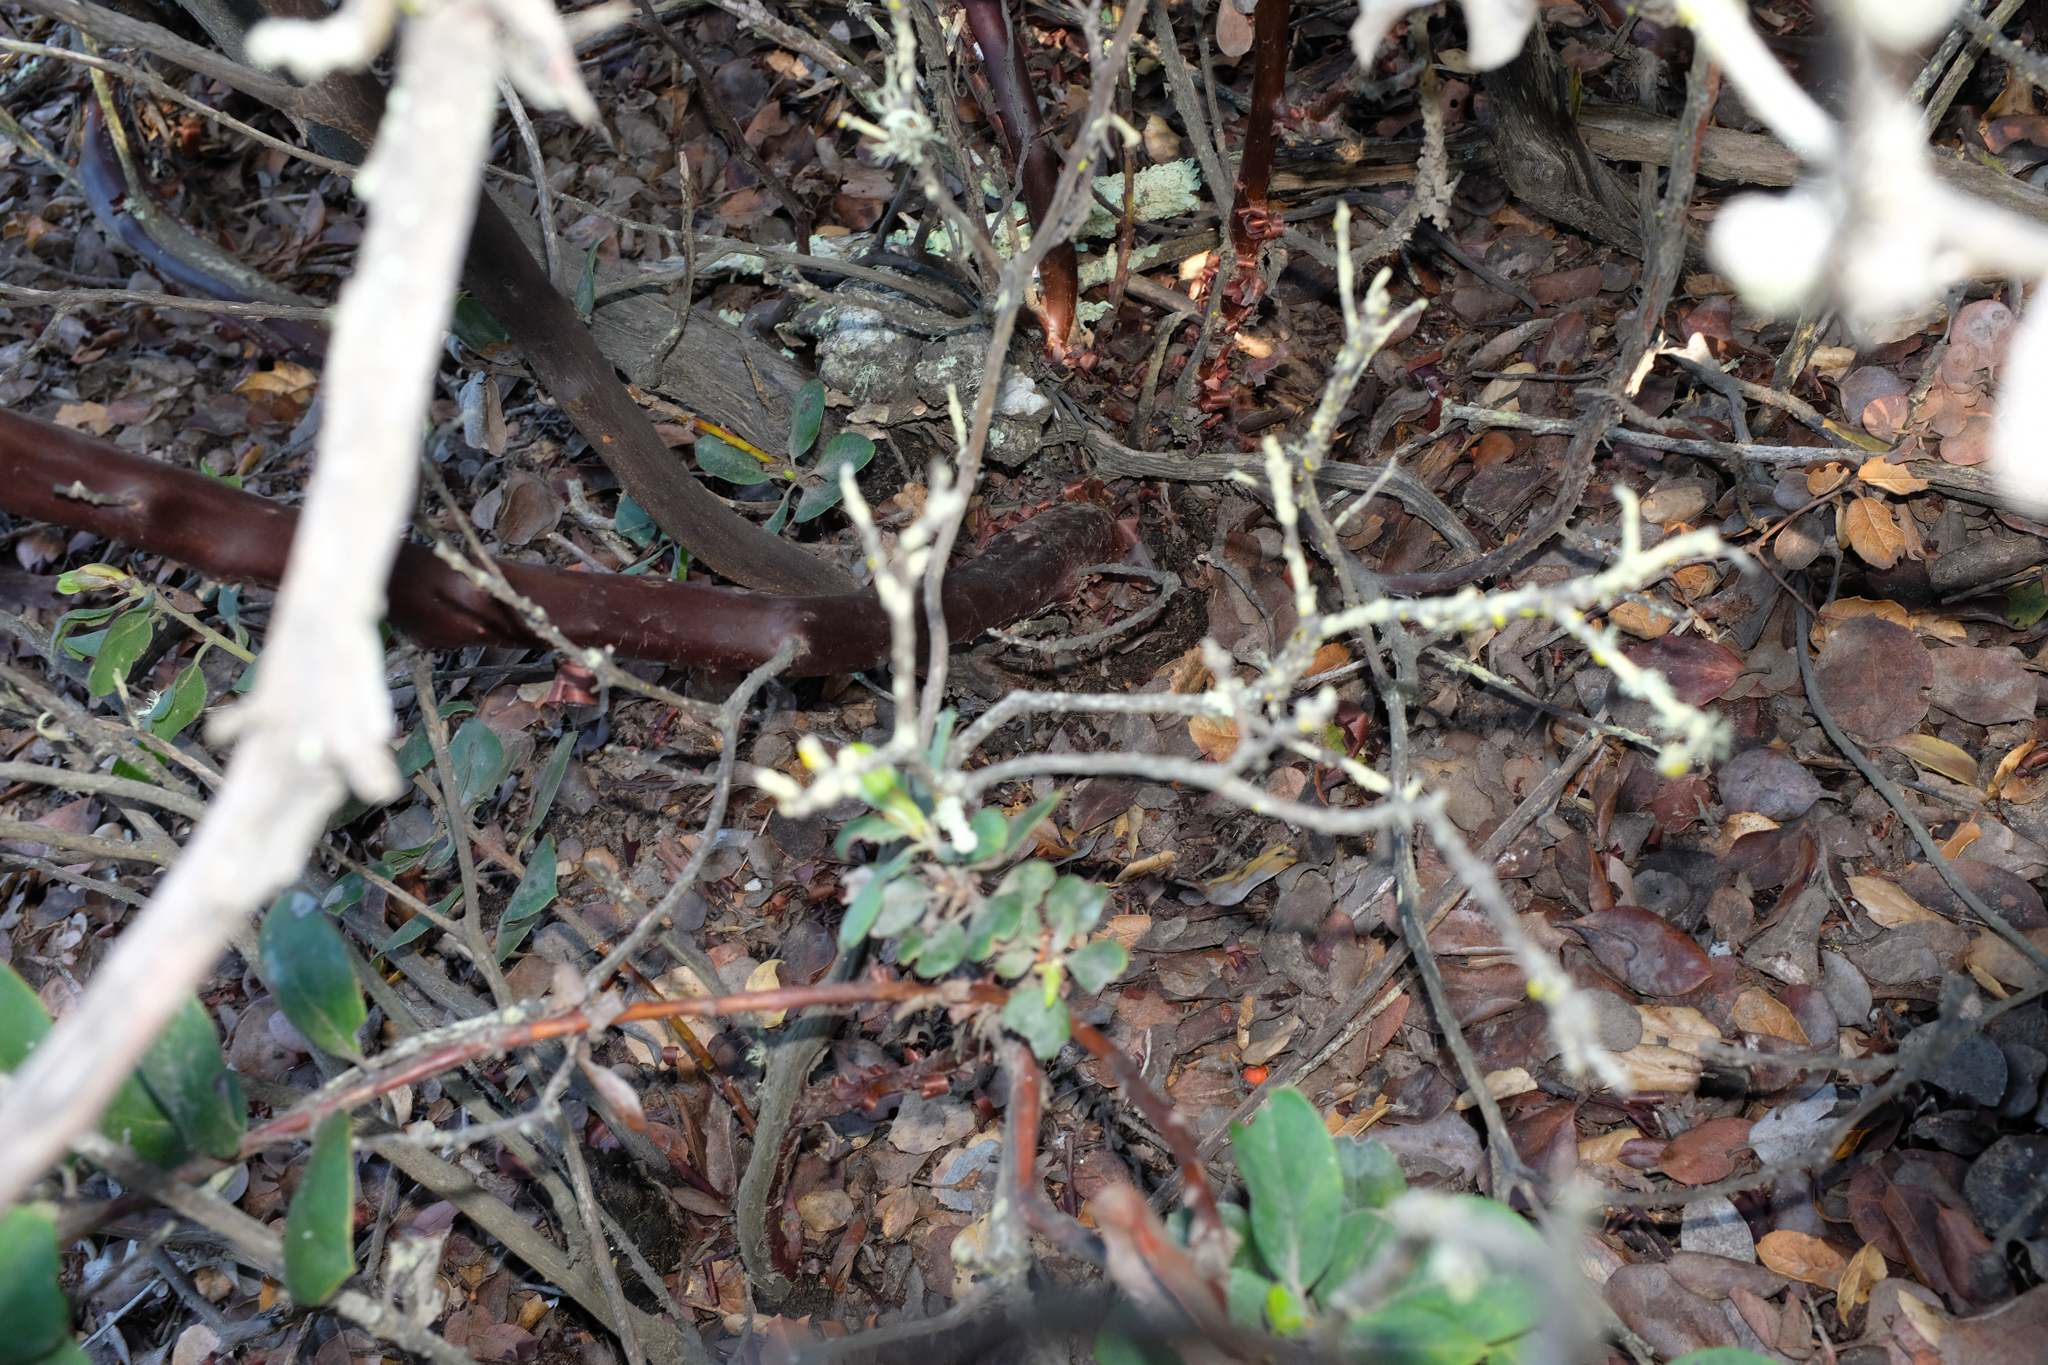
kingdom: Plantae
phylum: Tracheophyta
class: Magnoliopsida
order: Ericales
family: Ericaceae
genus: Arctostaphylos
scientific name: Arctostaphylos crustacea
